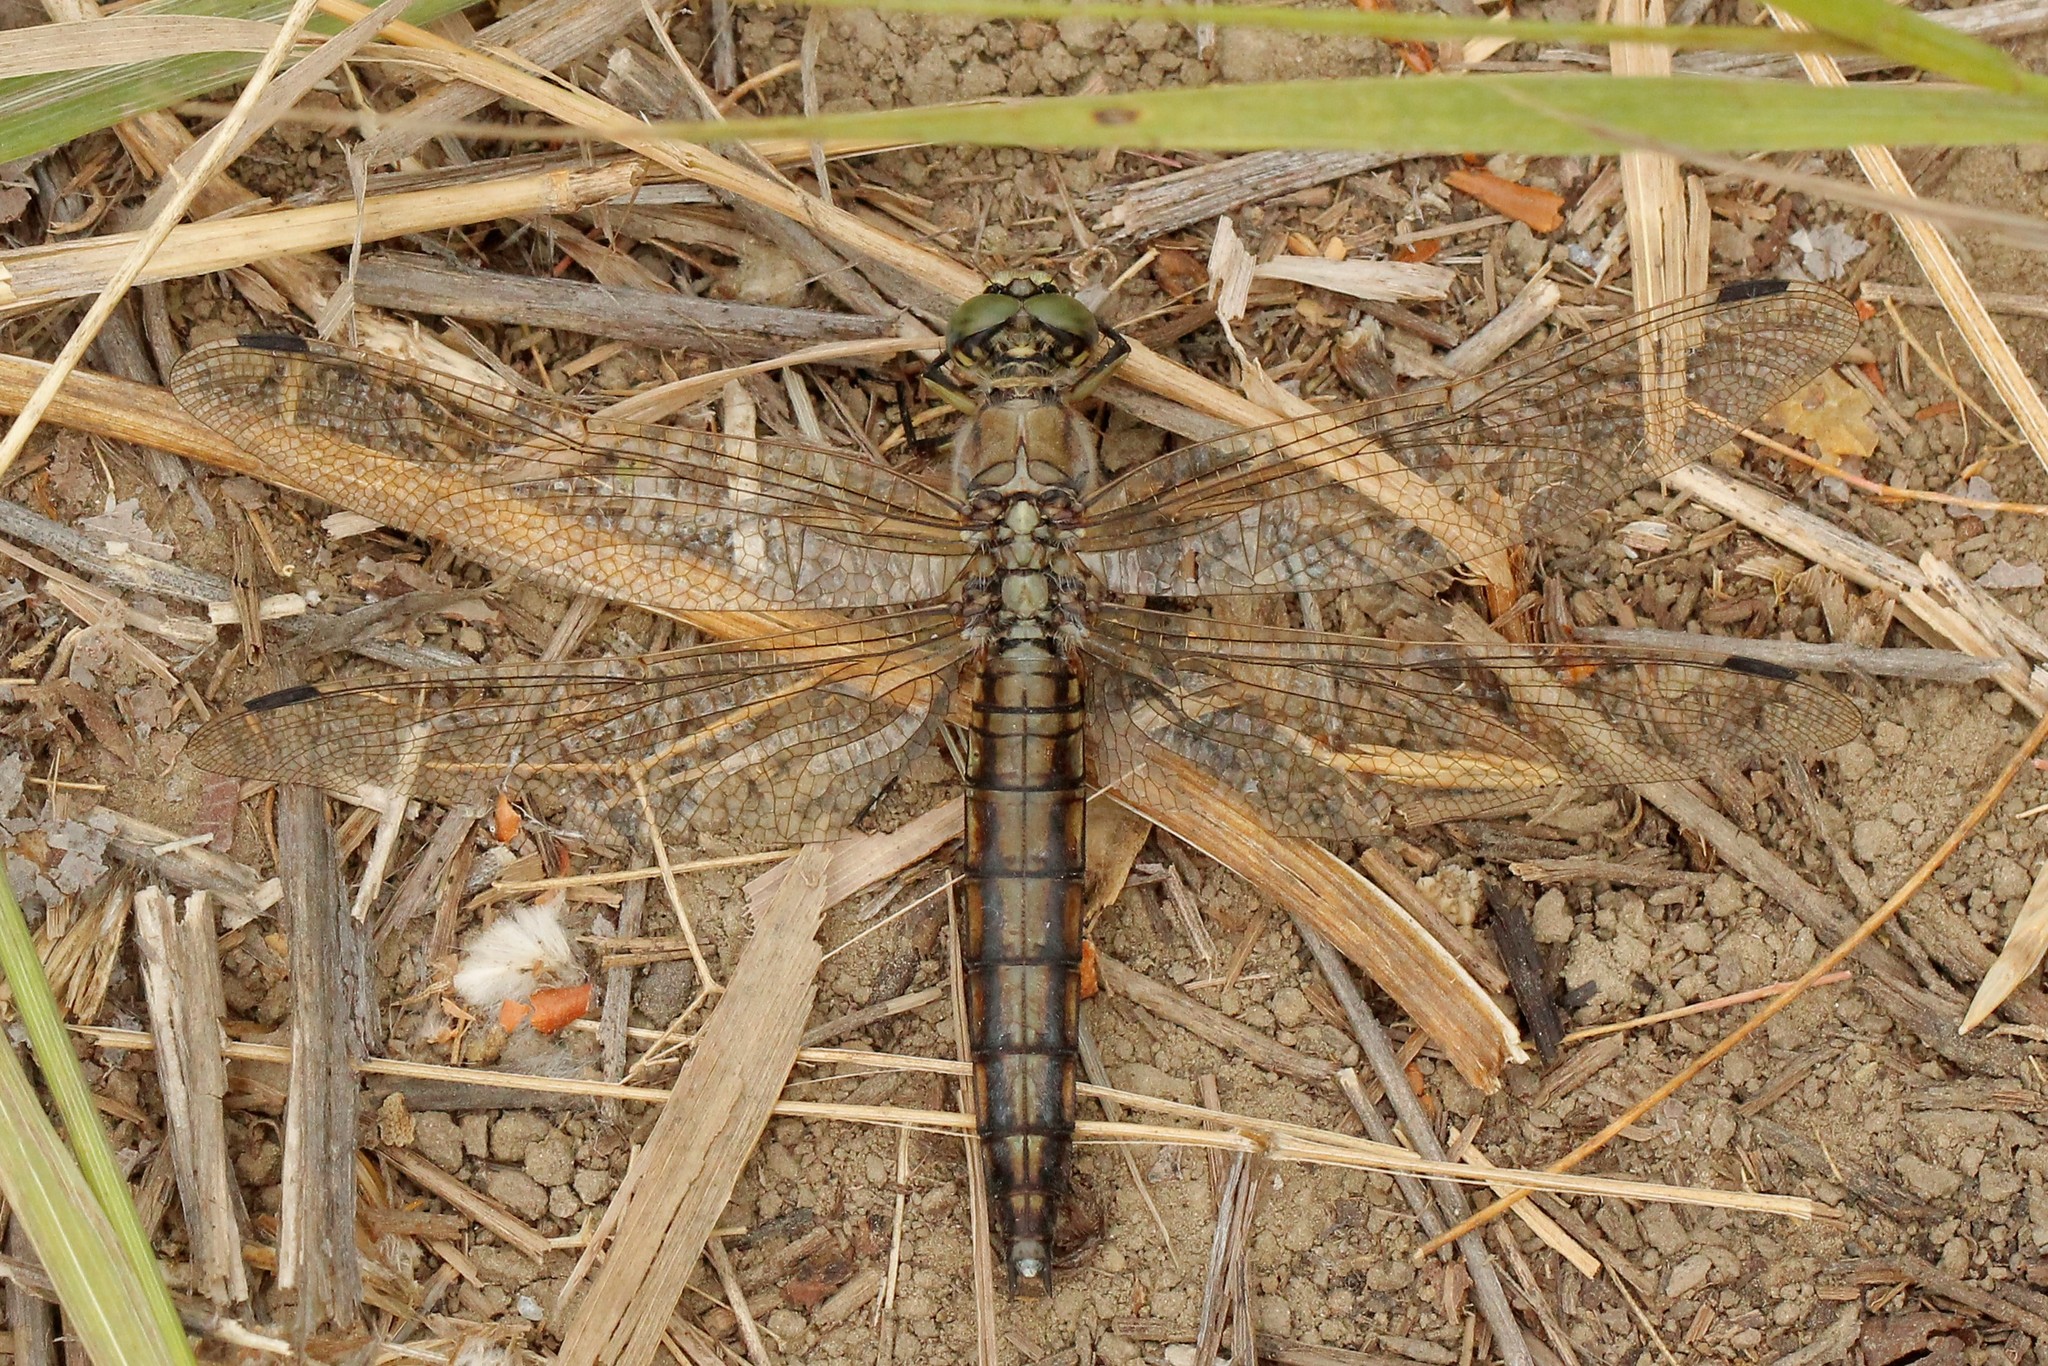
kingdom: Animalia
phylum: Arthropoda
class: Insecta
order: Odonata
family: Libellulidae
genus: Orthetrum
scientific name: Orthetrum cancellatum
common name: Black-tailed skimmer
